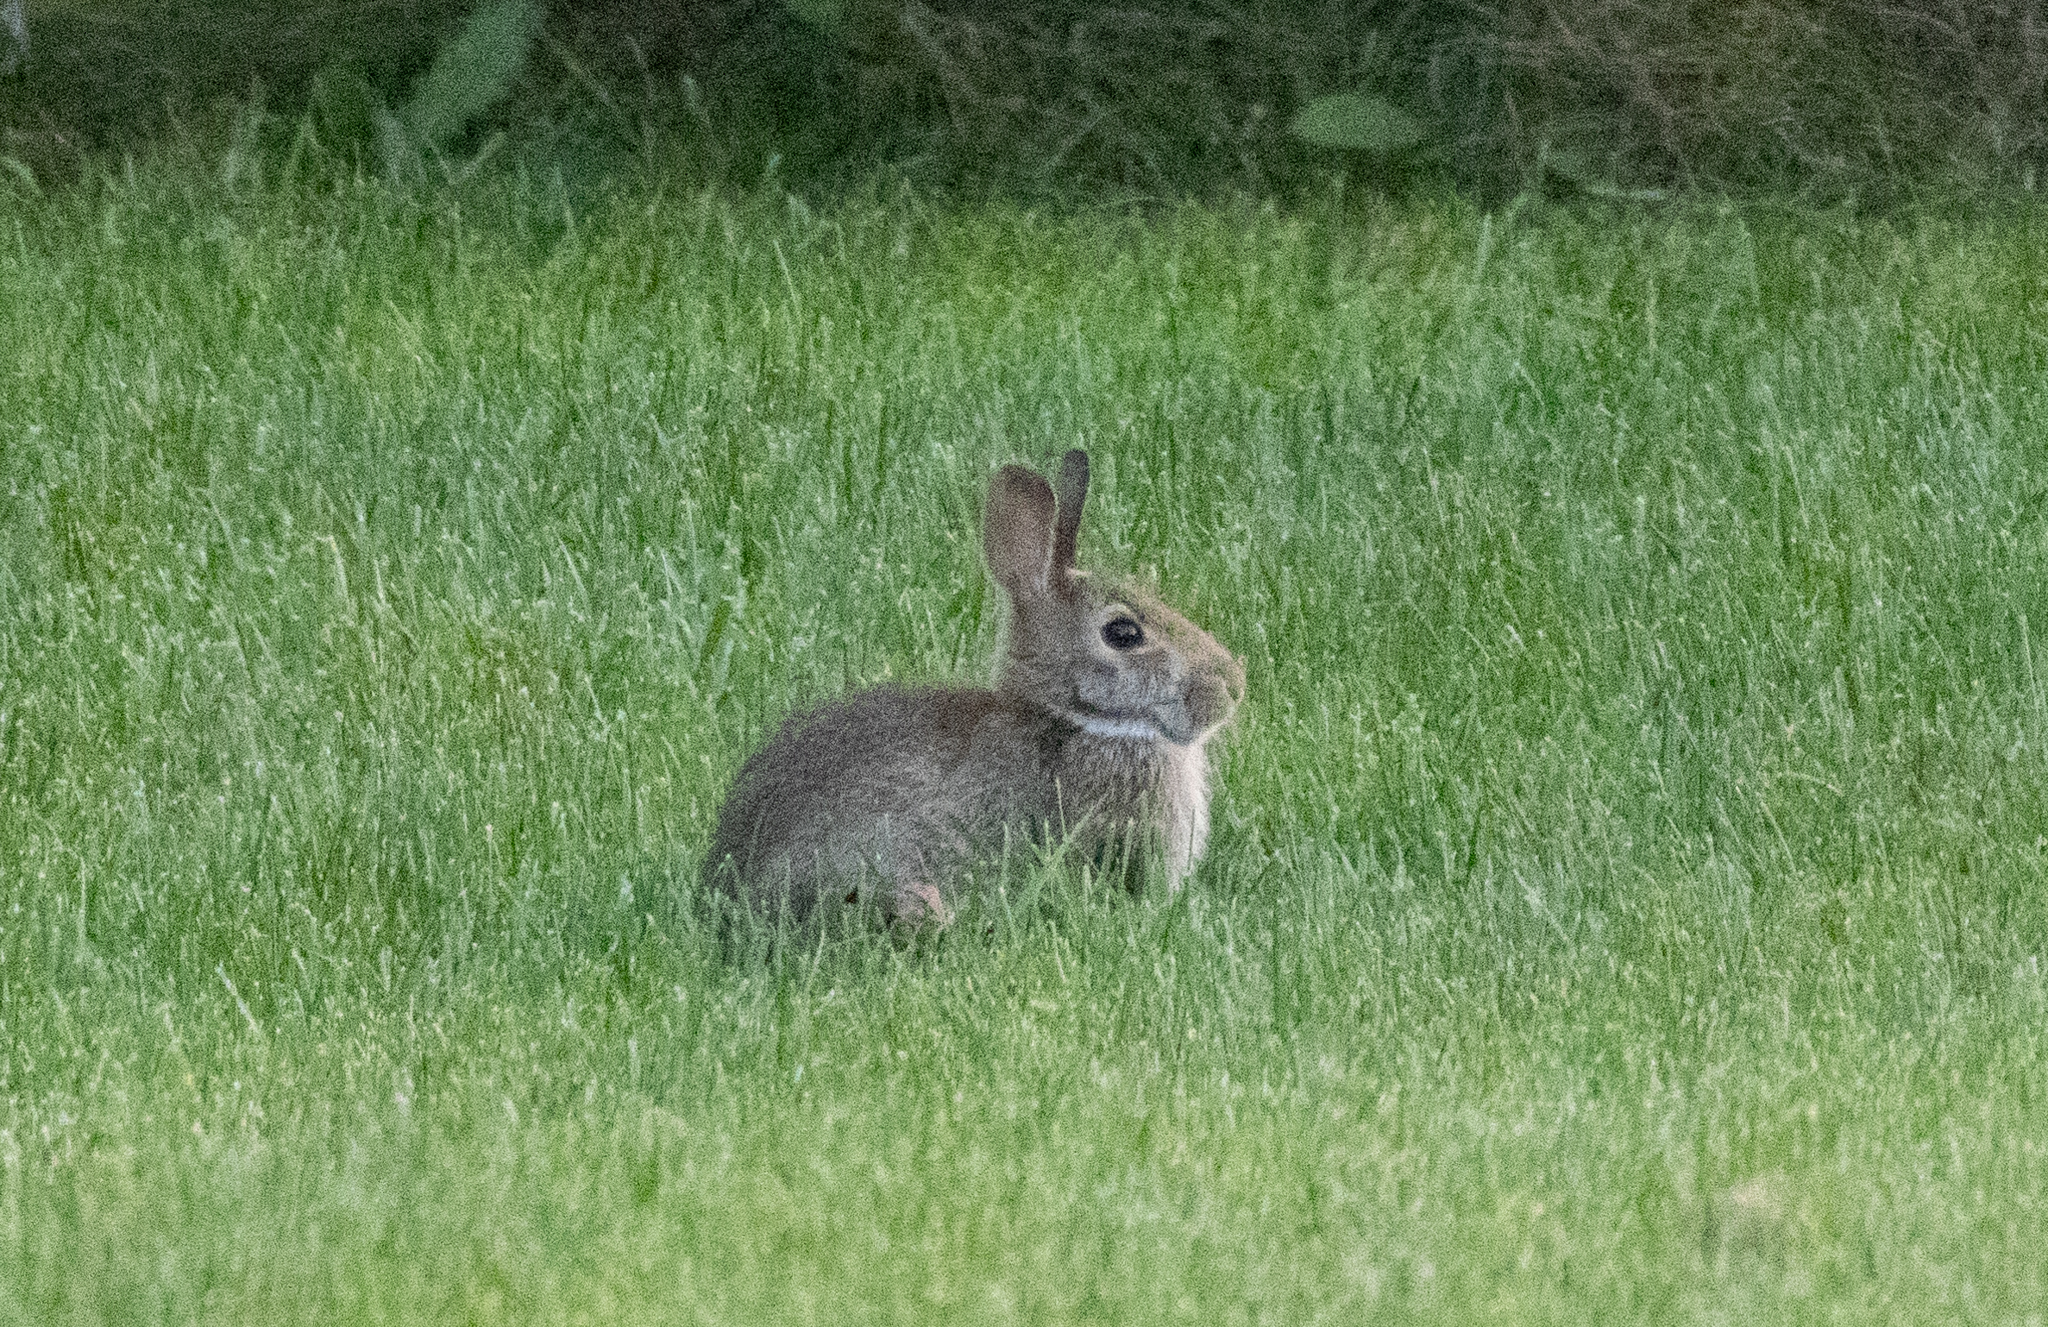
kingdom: Animalia
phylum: Chordata
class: Mammalia
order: Lagomorpha
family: Leporidae
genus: Sylvilagus
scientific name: Sylvilagus floridanus
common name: Eastern cottontail
